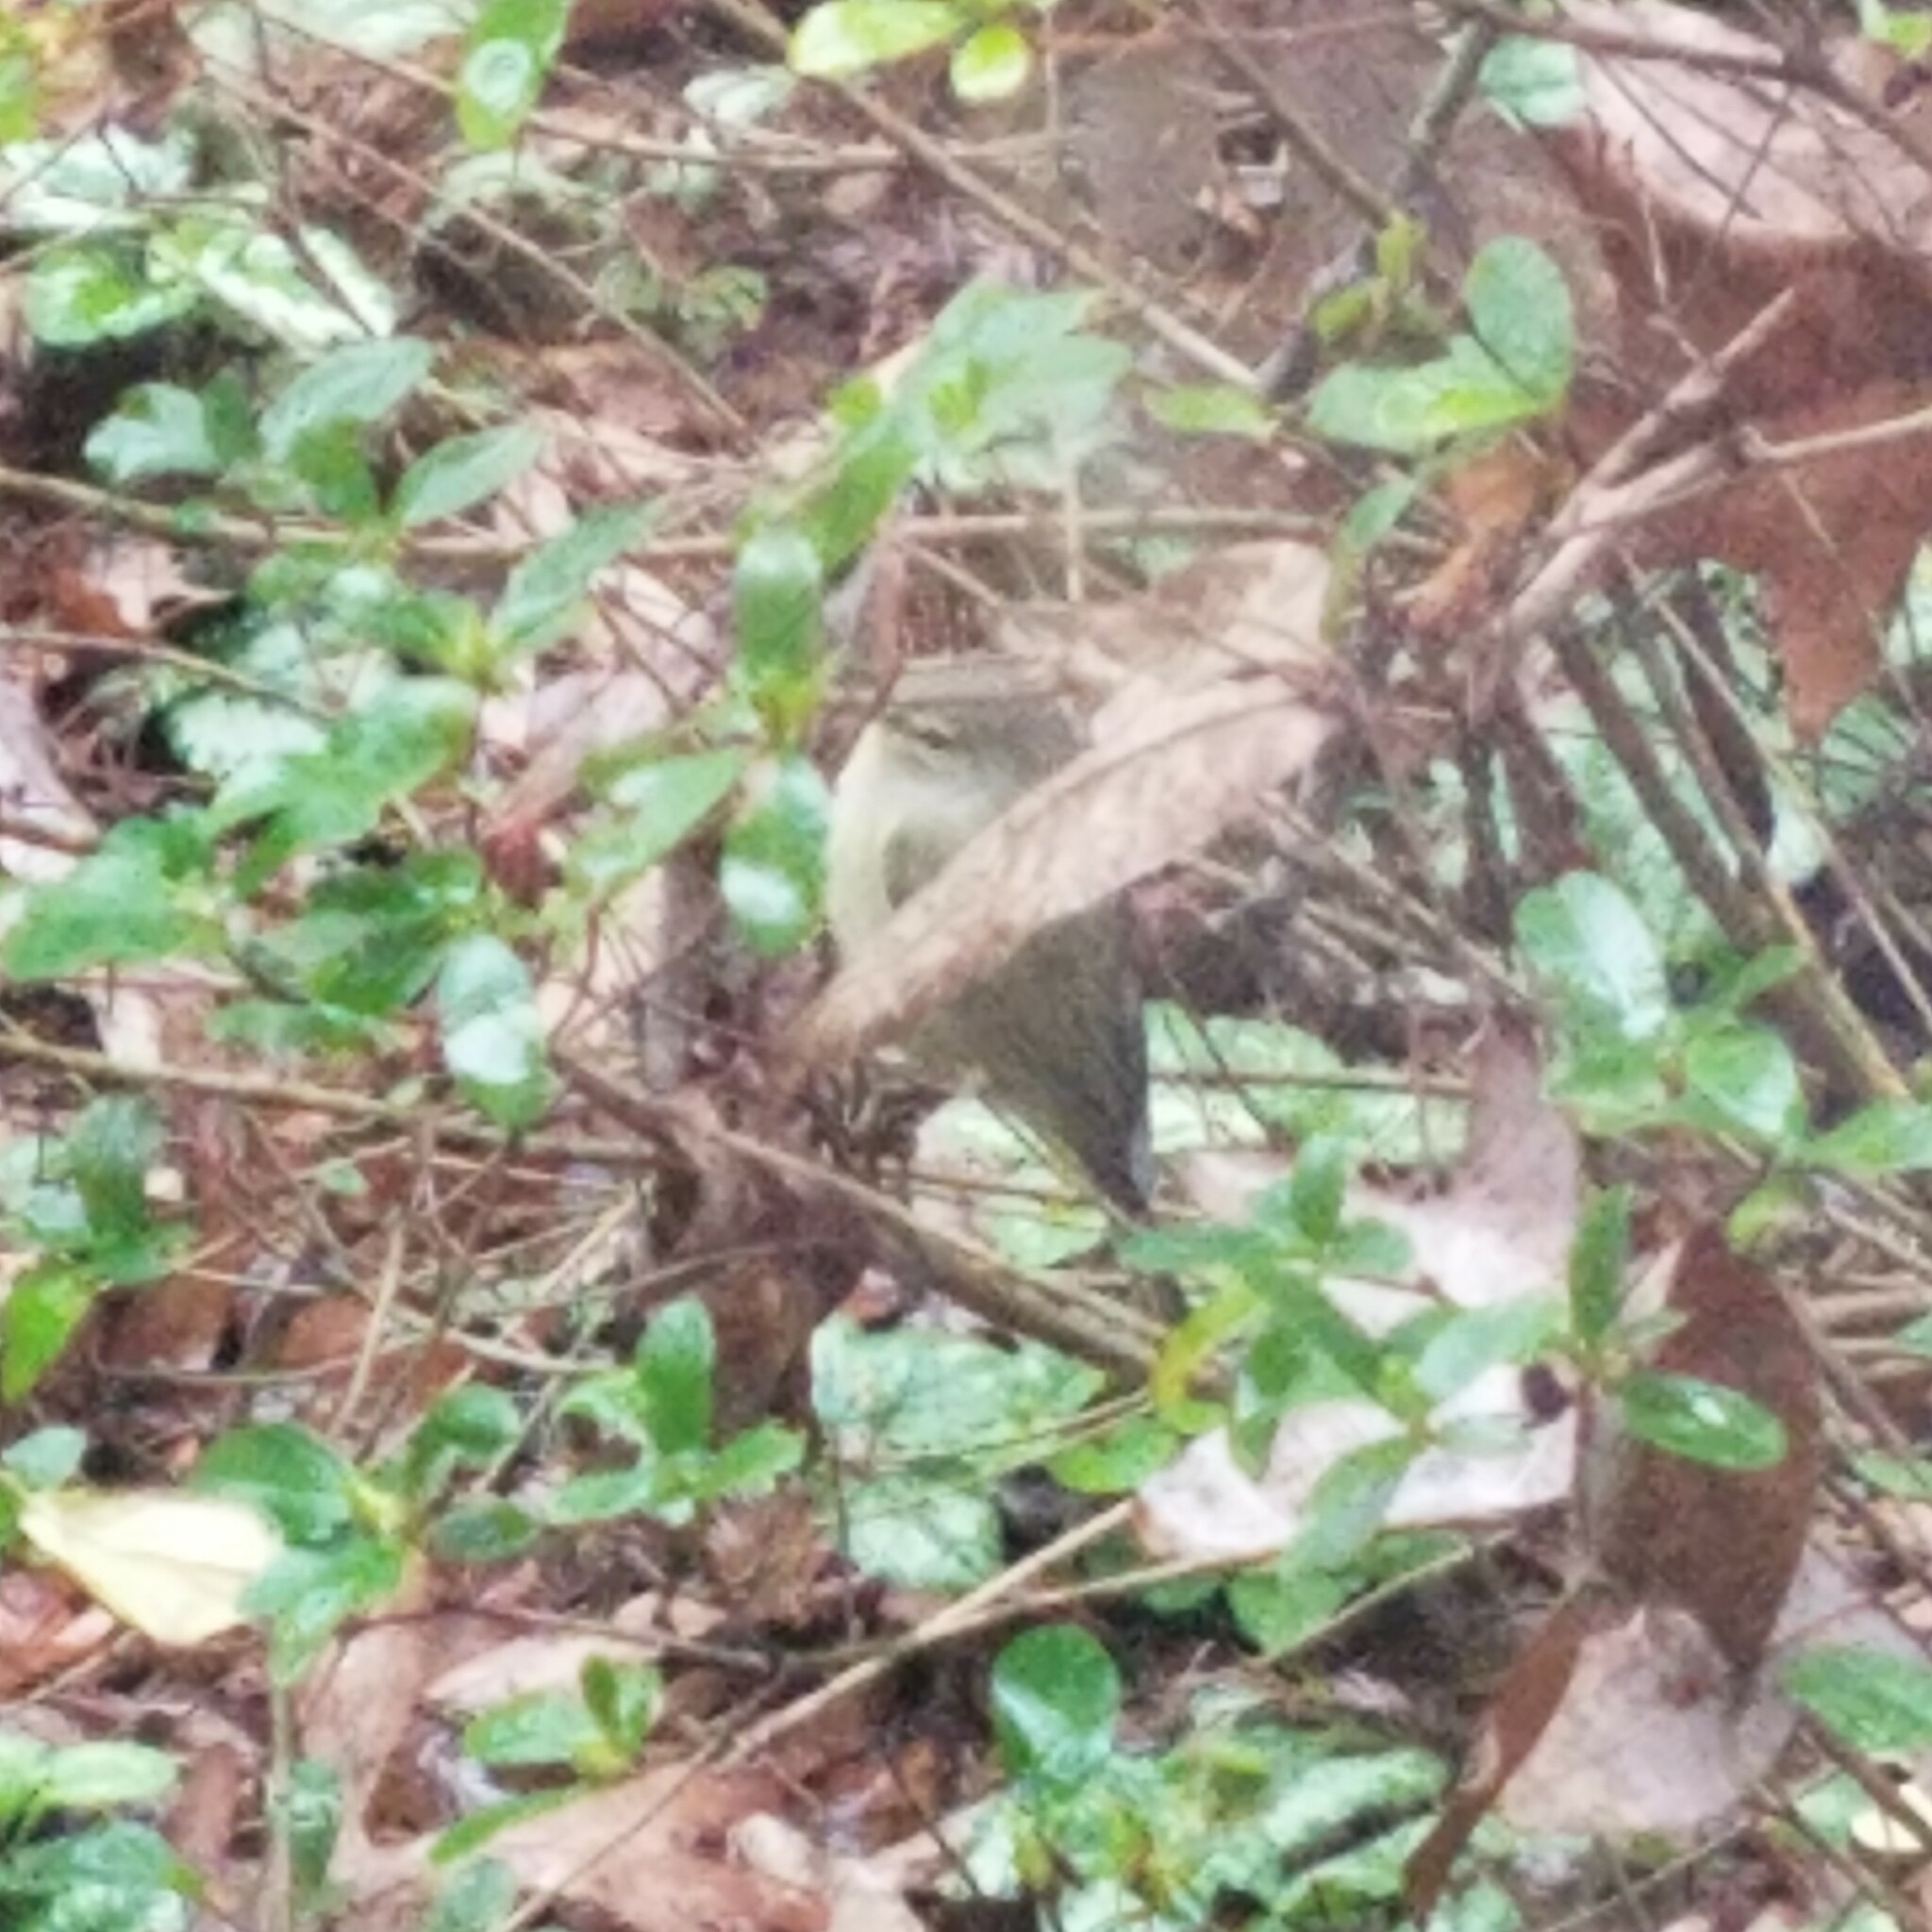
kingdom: Animalia
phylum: Chordata
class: Aves
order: Passeriformes
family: Parulidae
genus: Leiothlypis
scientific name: Leiothlypis celata
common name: Orange-crowned warbler
